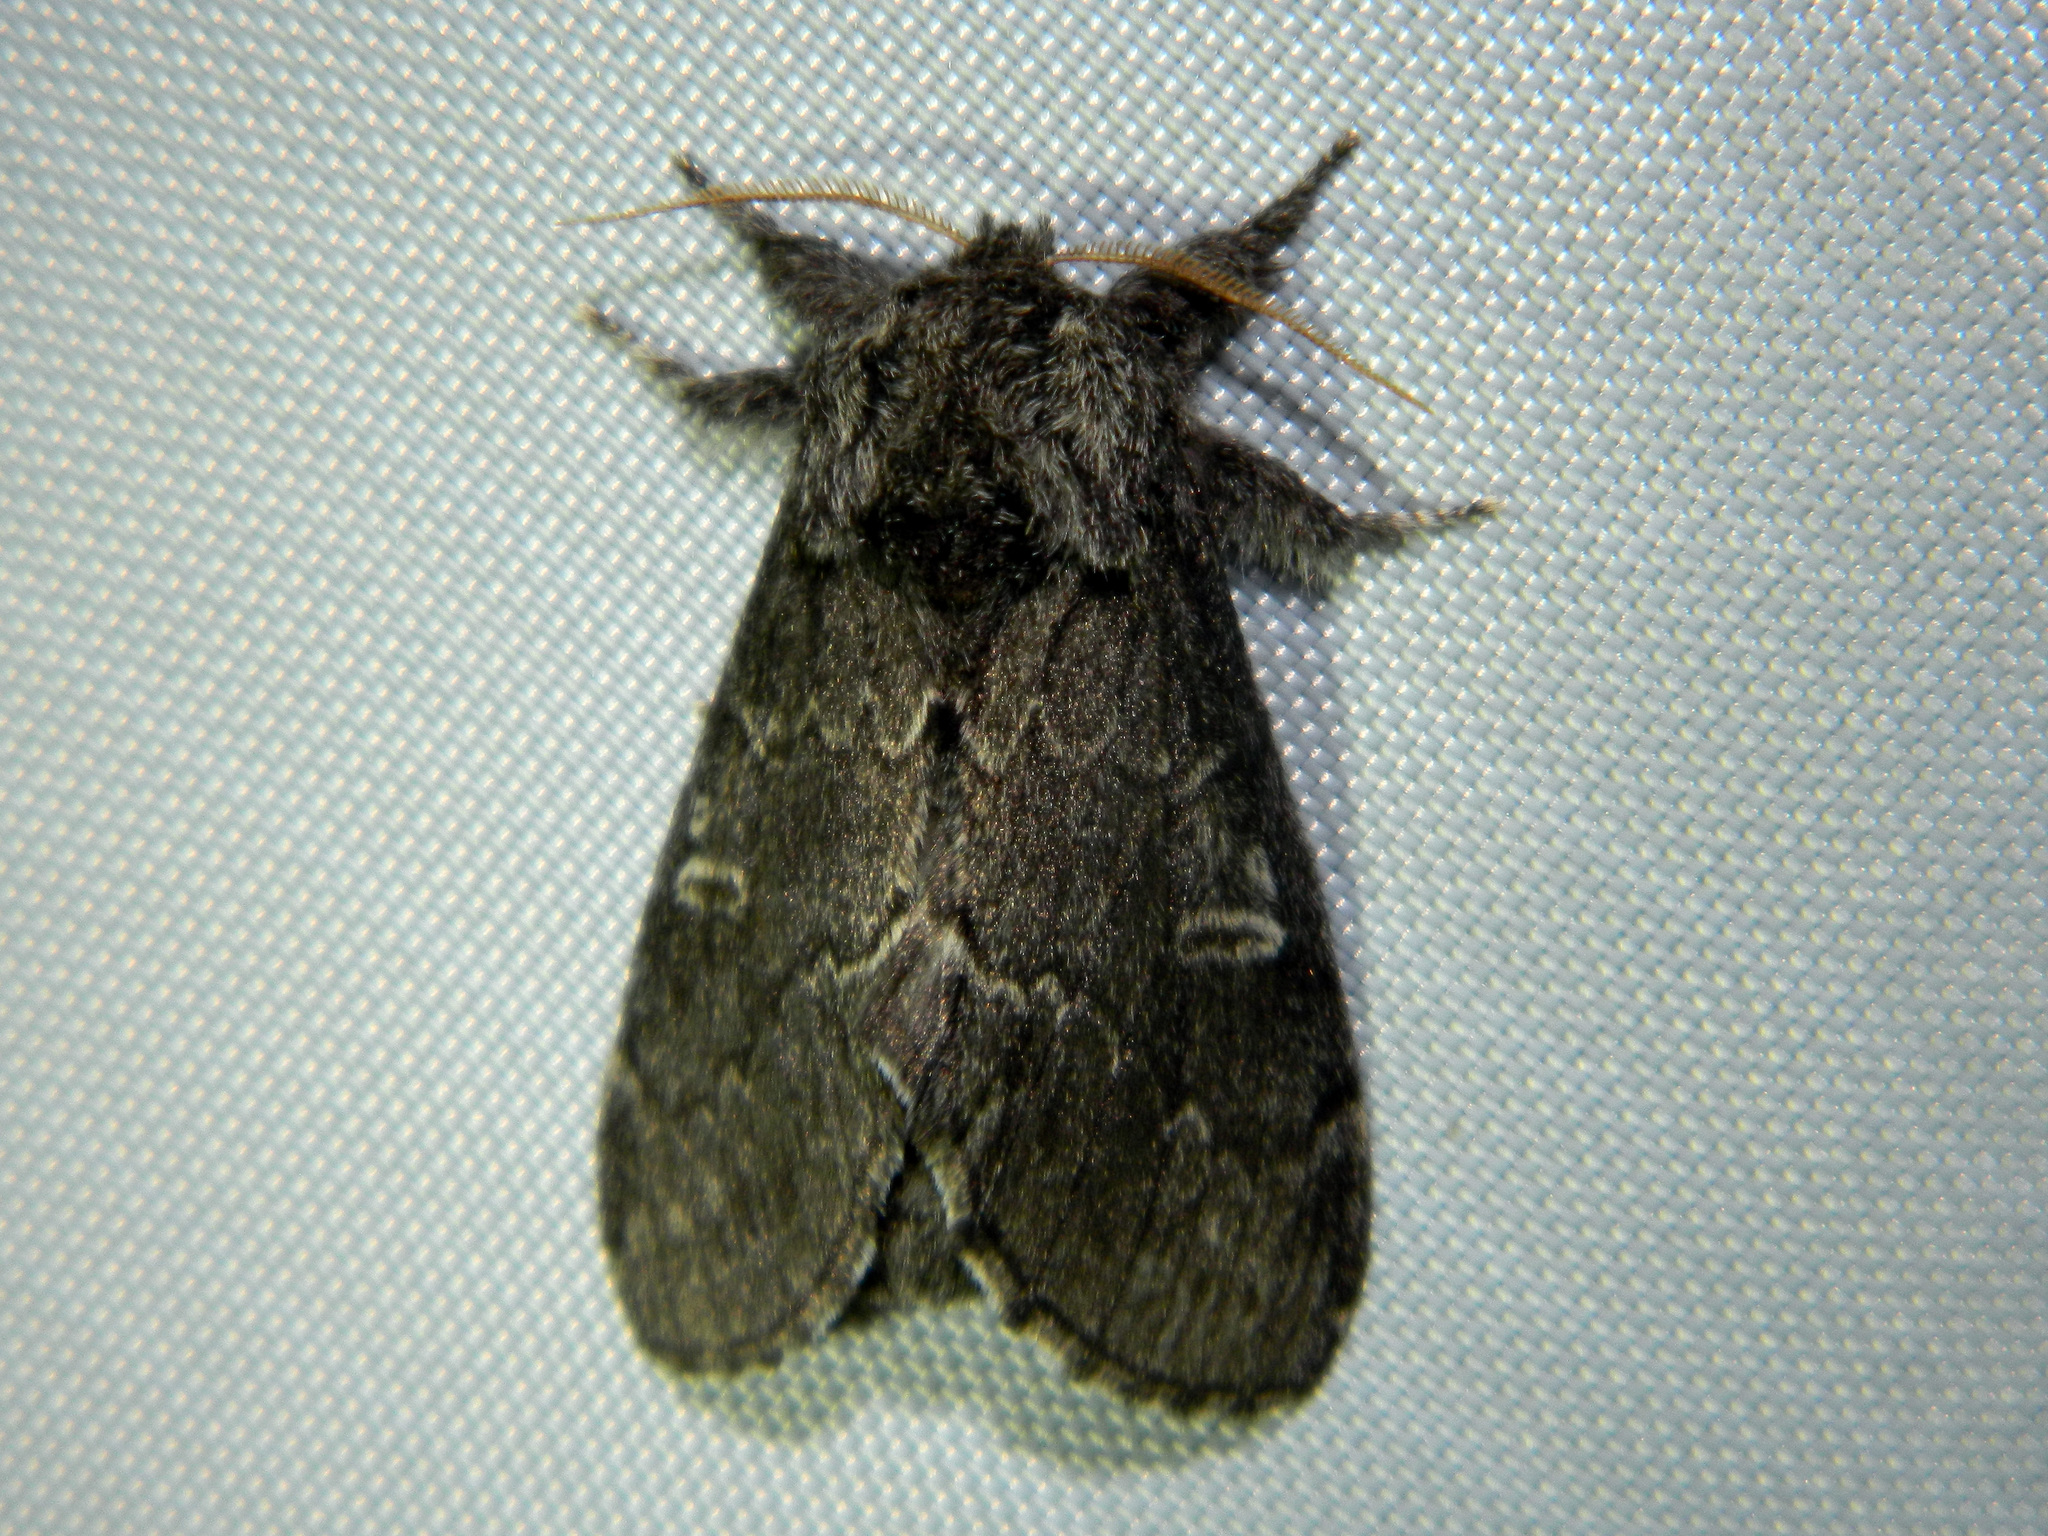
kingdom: Animalia
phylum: Arthropoda
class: Insecta
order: Lepidoptera
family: Notodontidae
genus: Notodonta
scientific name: Notodonta torva
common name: Large dark prominent
